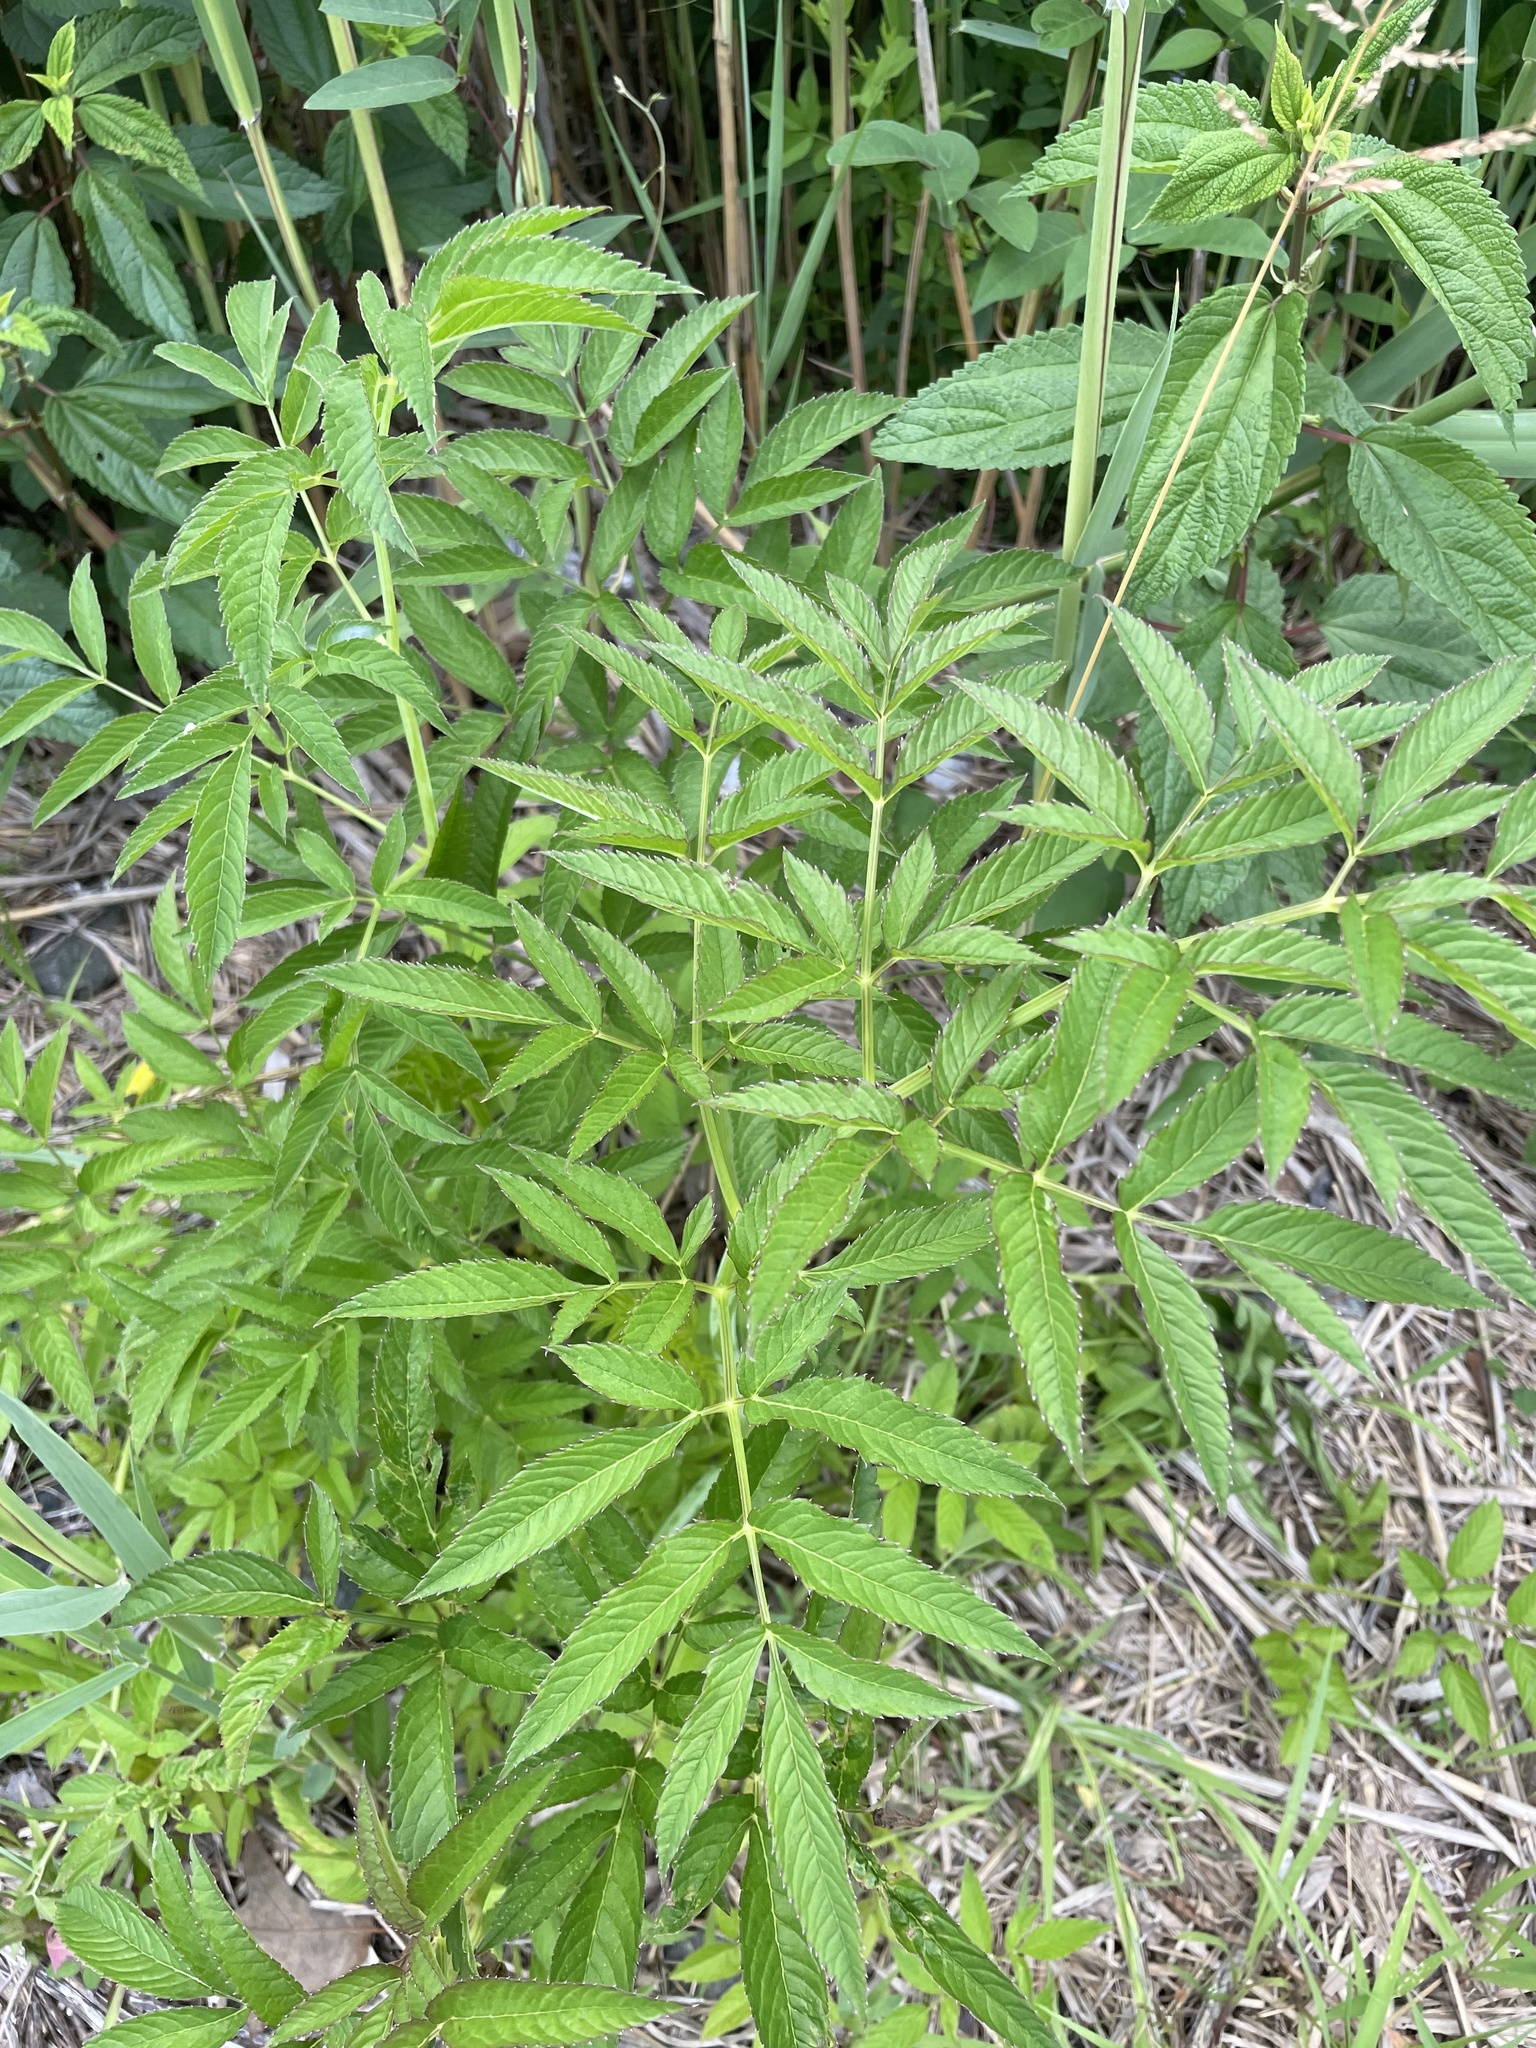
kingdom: Plantae
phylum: Tracheophyta
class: Magnoliopsida
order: Apiales
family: Apiaceae
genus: Cicuta
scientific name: Cicuta maculata
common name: Spotted cowbane
